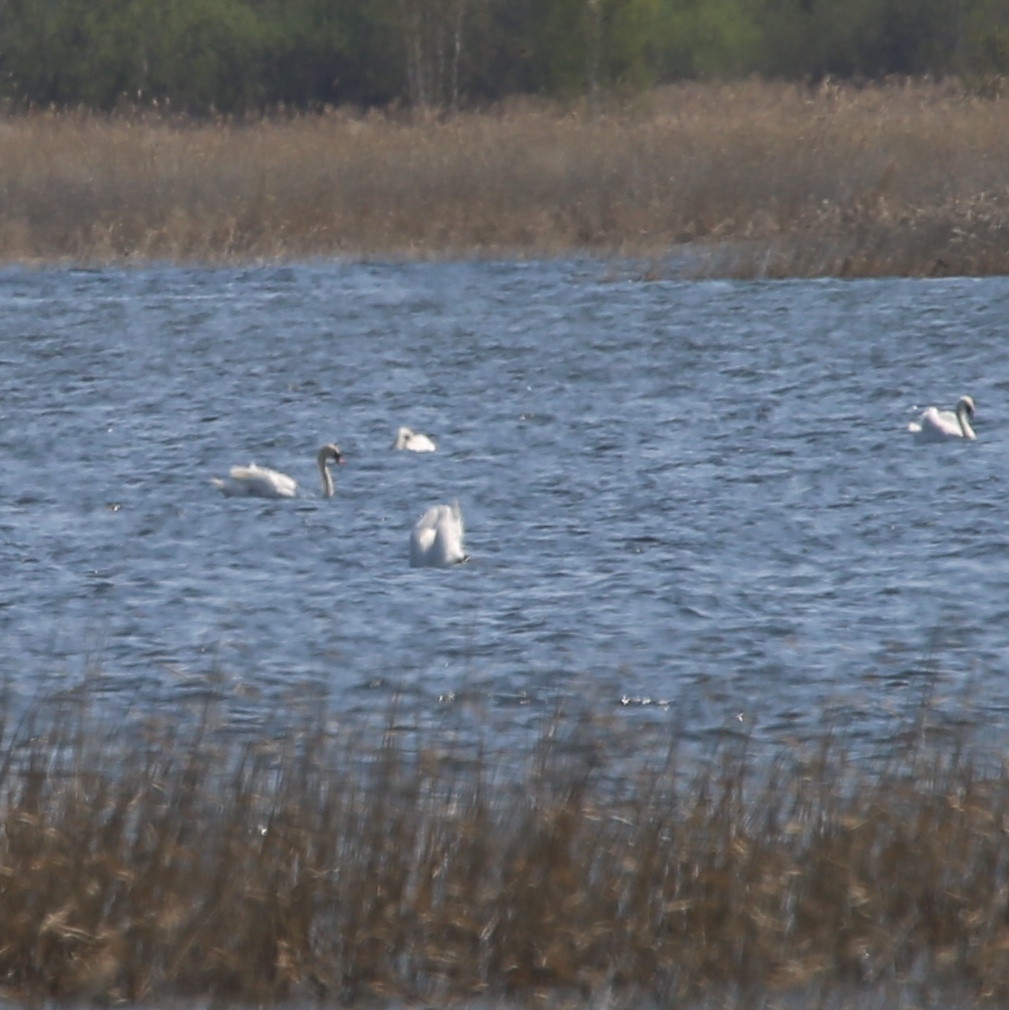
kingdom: Animalia
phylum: Chordata
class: Aves
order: Anseriformes
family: Anatidae
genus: Cygnus
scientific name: Cygnus olor
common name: Mute swan
